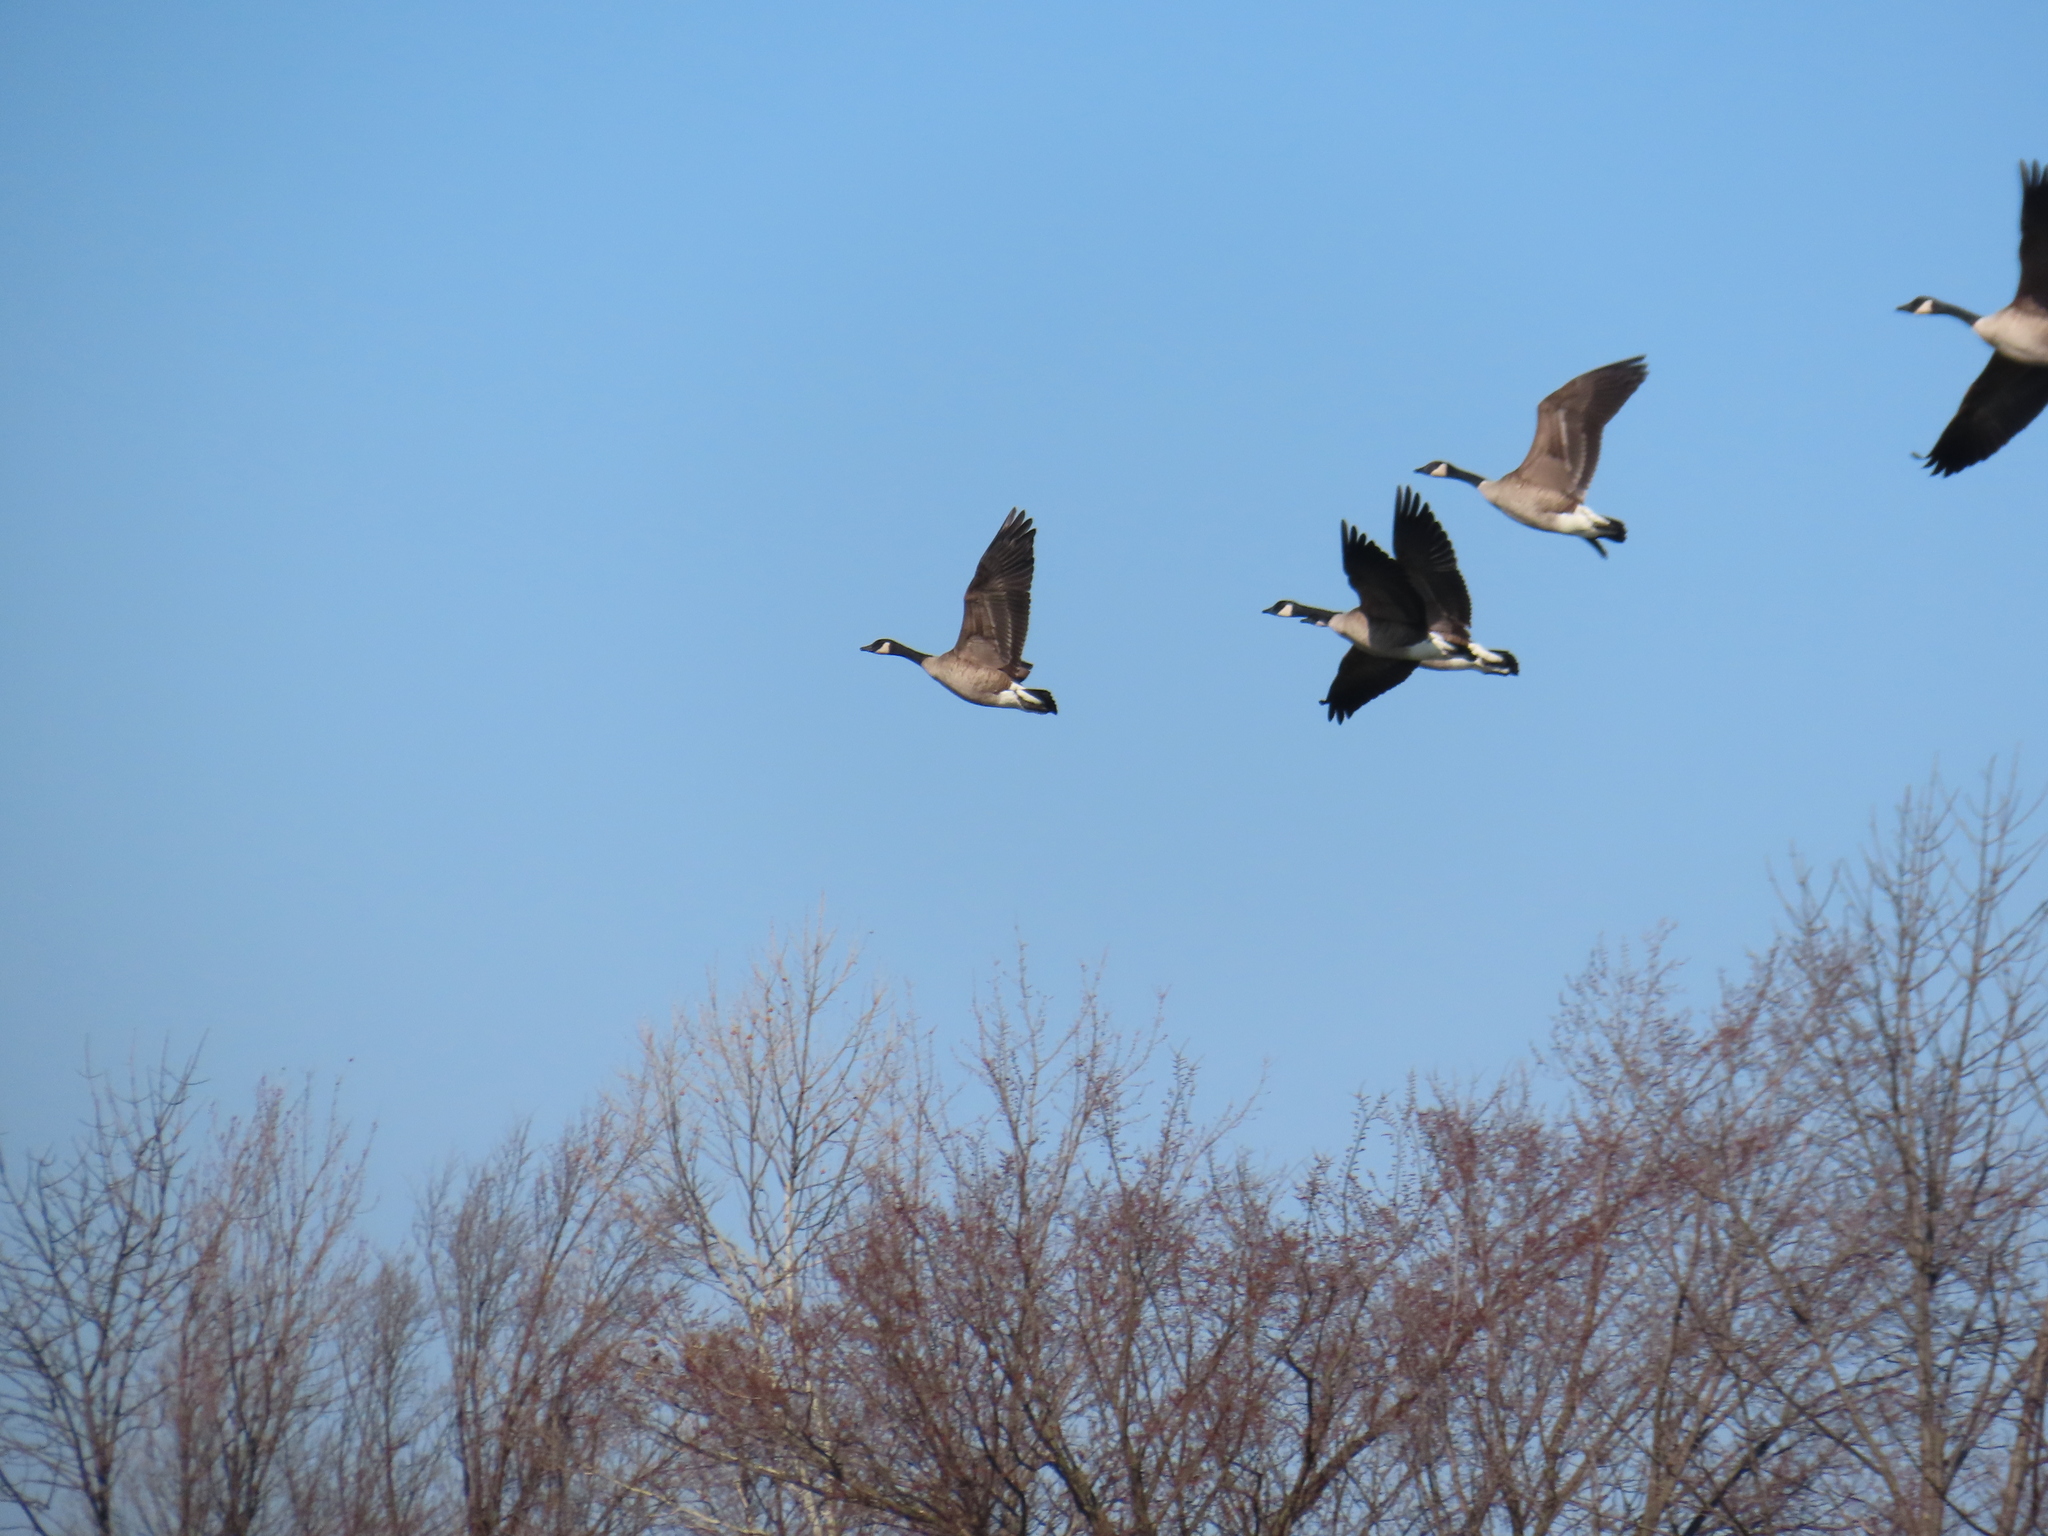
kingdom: Animalia
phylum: Chordata
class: Aves
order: Anseriformes
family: Anatidae
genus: Branta
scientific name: Branta canadensis
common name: Canada goose
